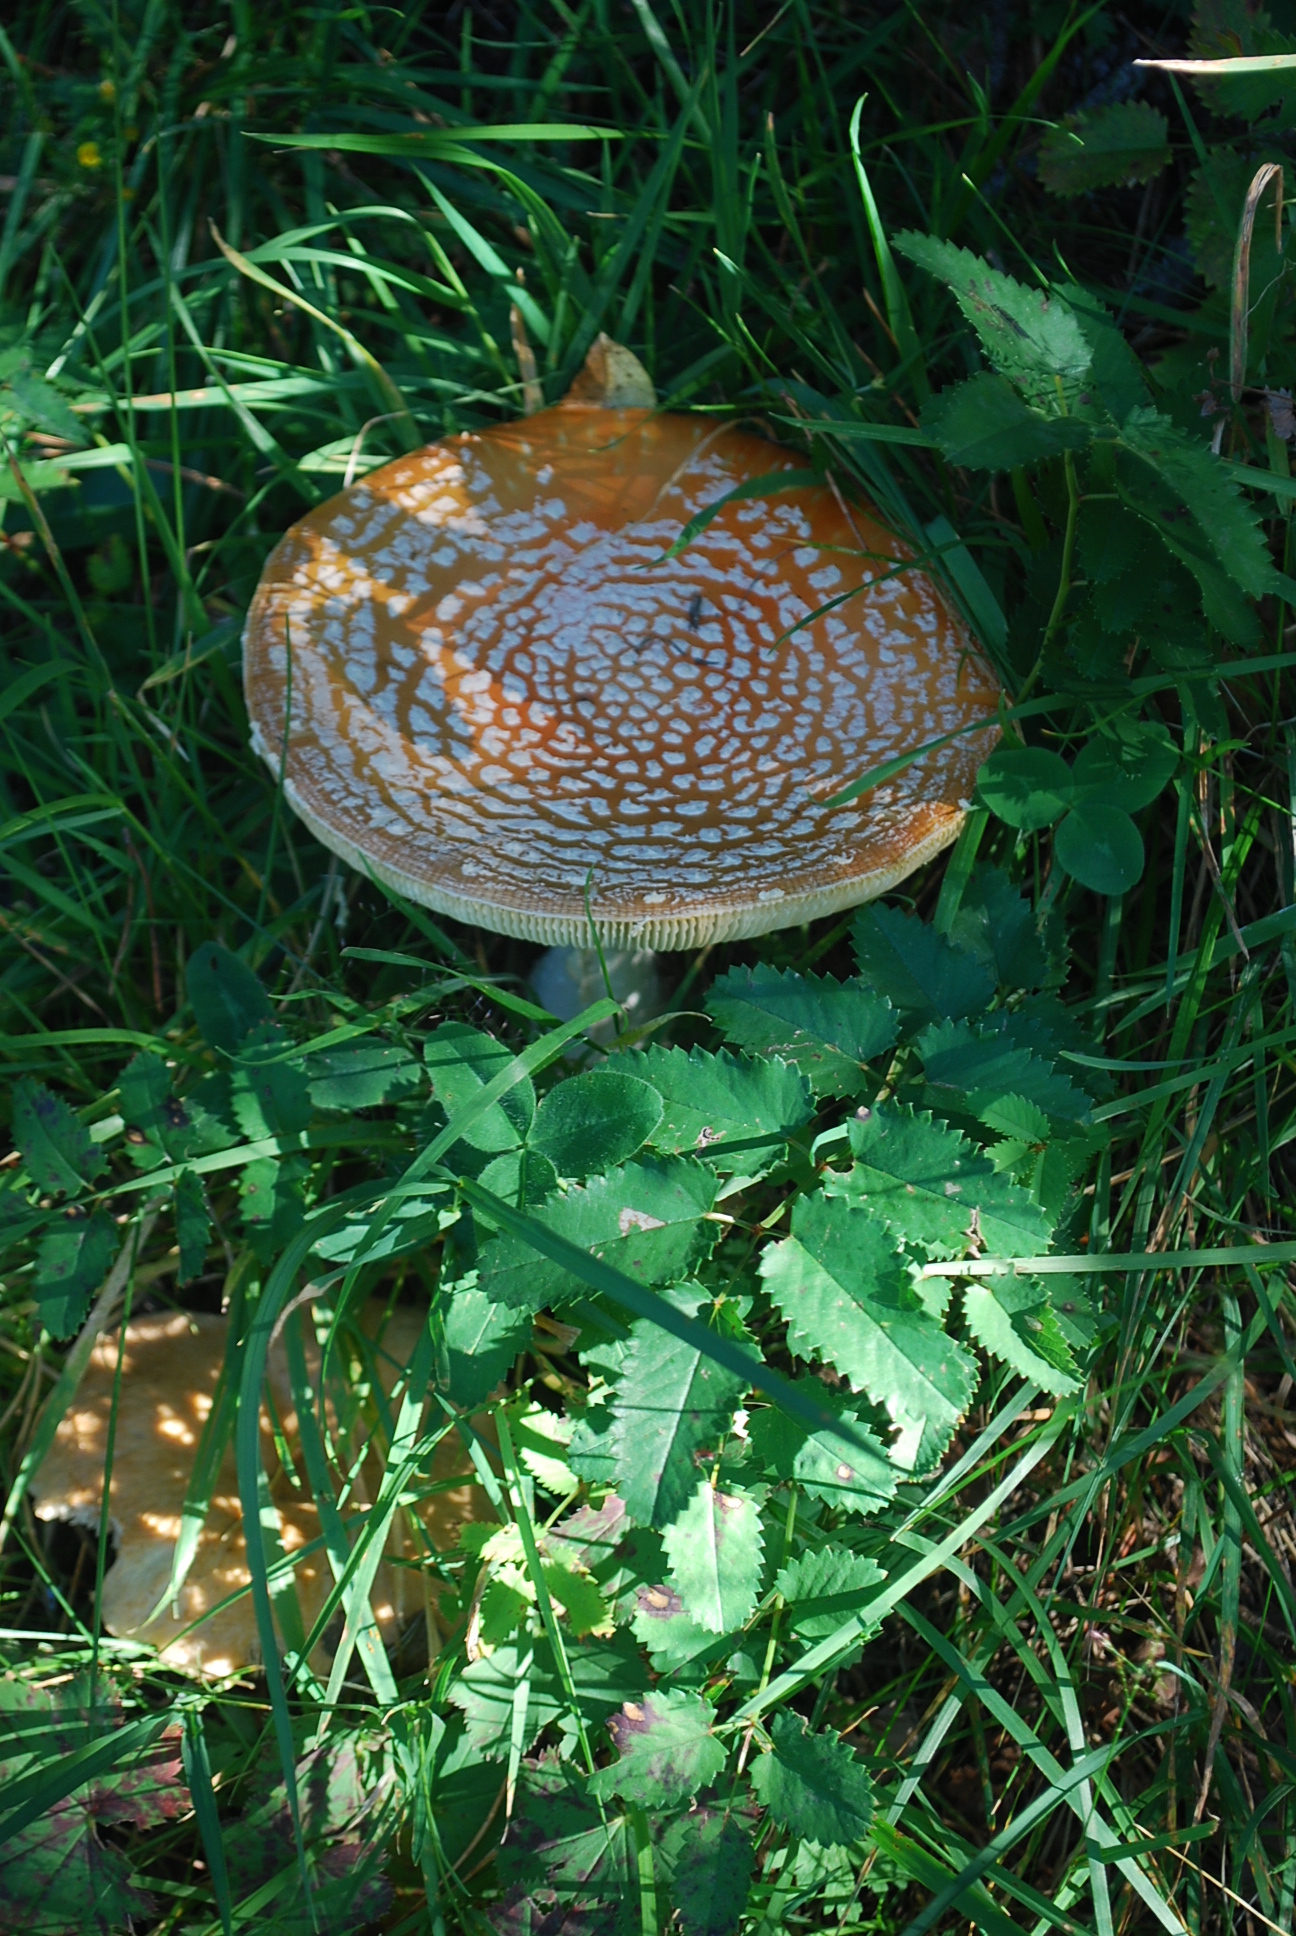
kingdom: Fungi
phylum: Basidiomycota
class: Agaricomycetes
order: Agaricales
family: Amanitaceae
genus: Amanita
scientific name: Amanita muscaria
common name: Fly agaric
